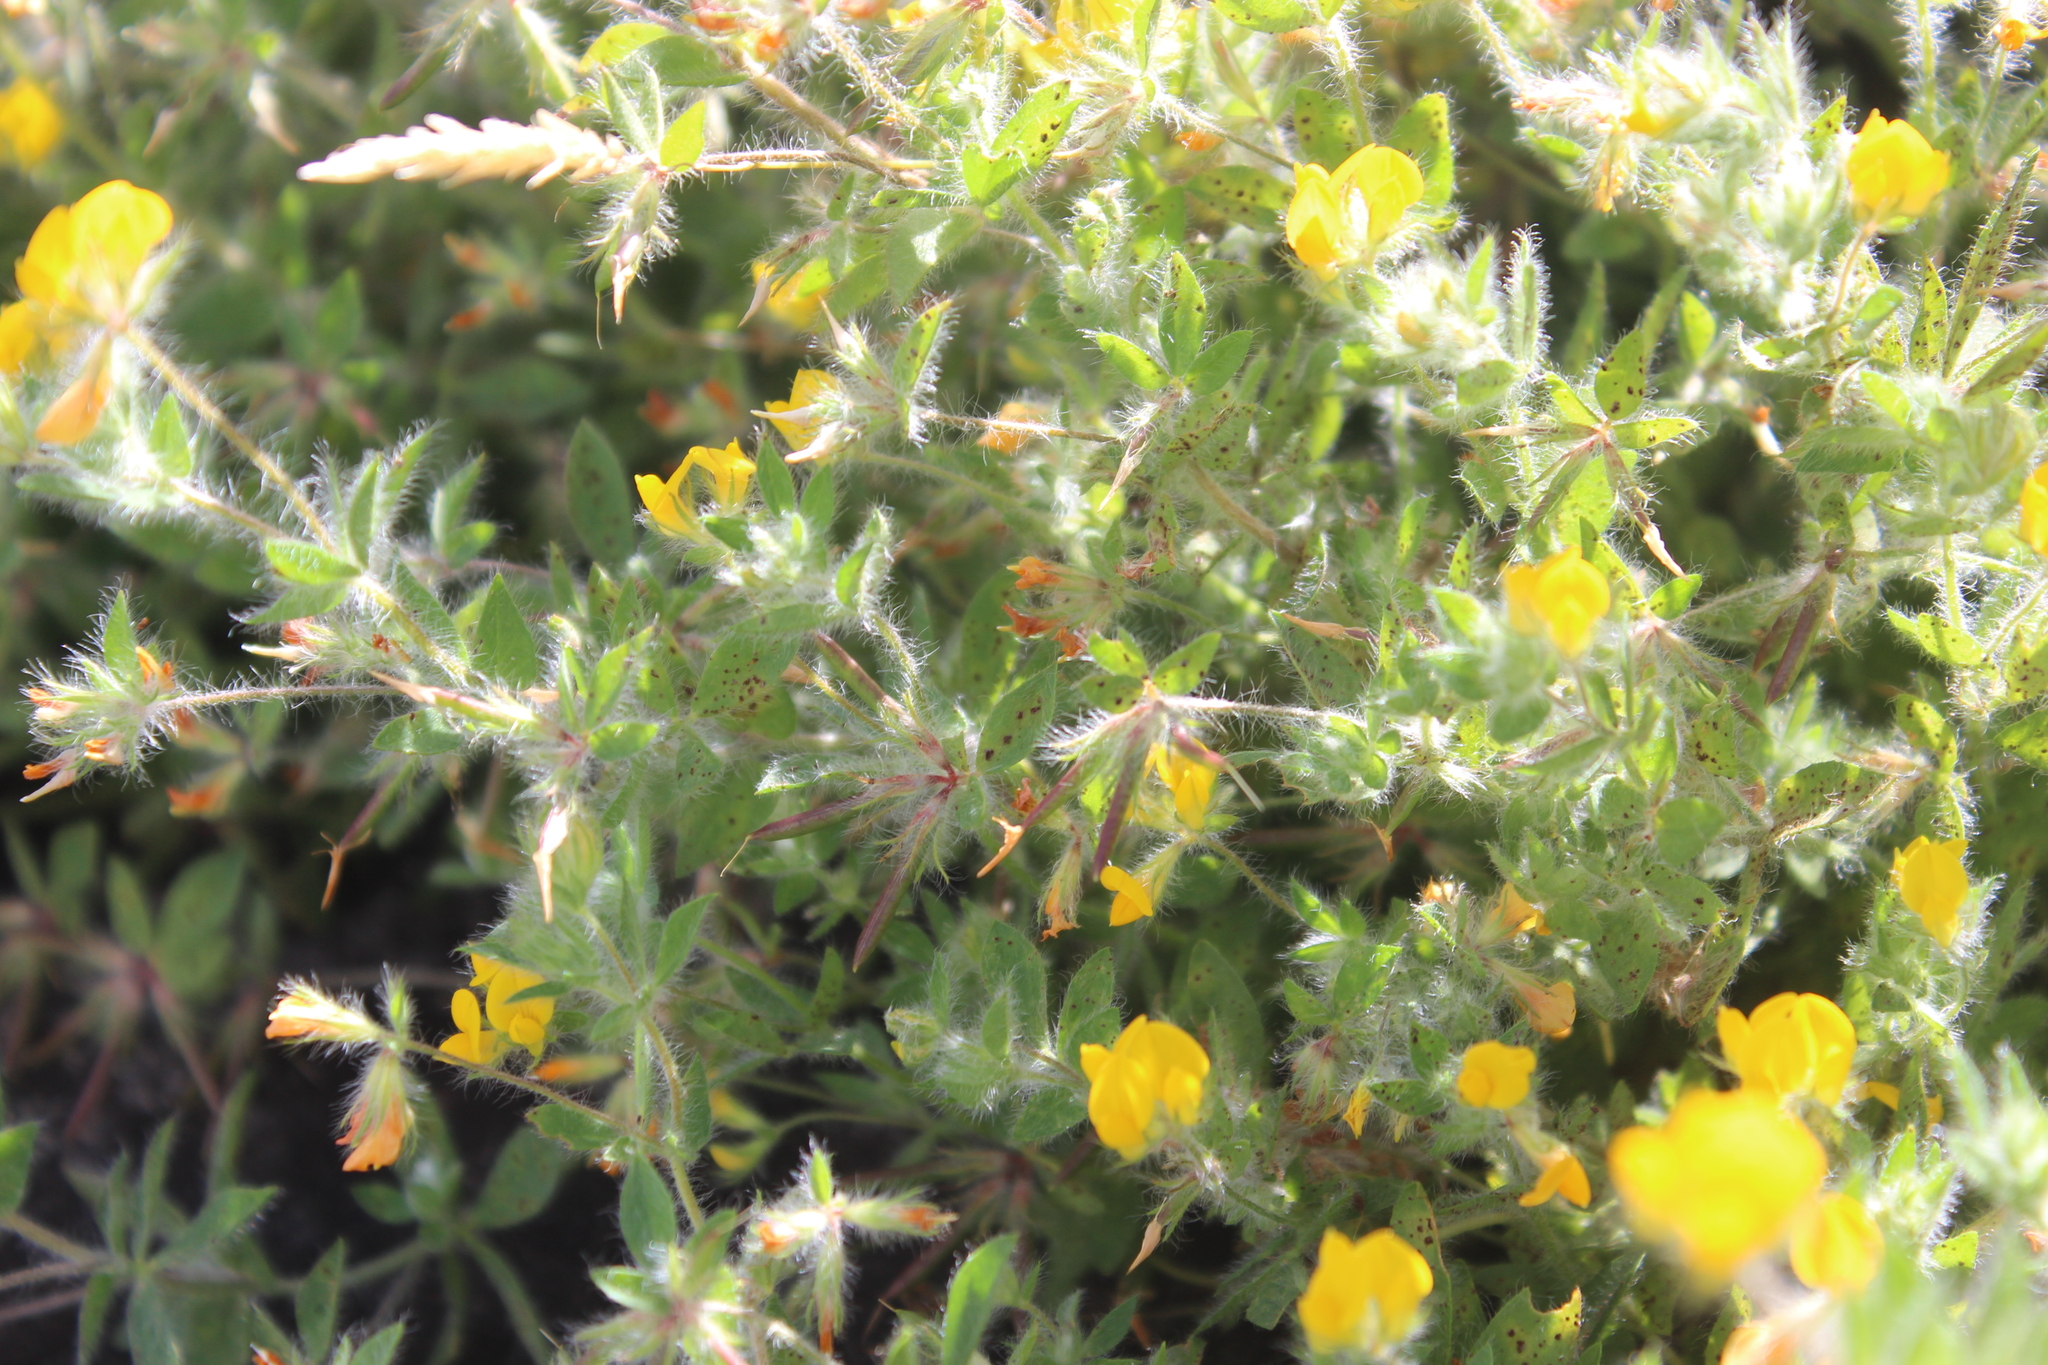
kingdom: Plantae
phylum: Tracheophyta
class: Magnoliopsida
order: Fabales
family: Fabaceae
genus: Lotus
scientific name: Lotus subbiflorus
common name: Hairy bird's-foot trefoil
